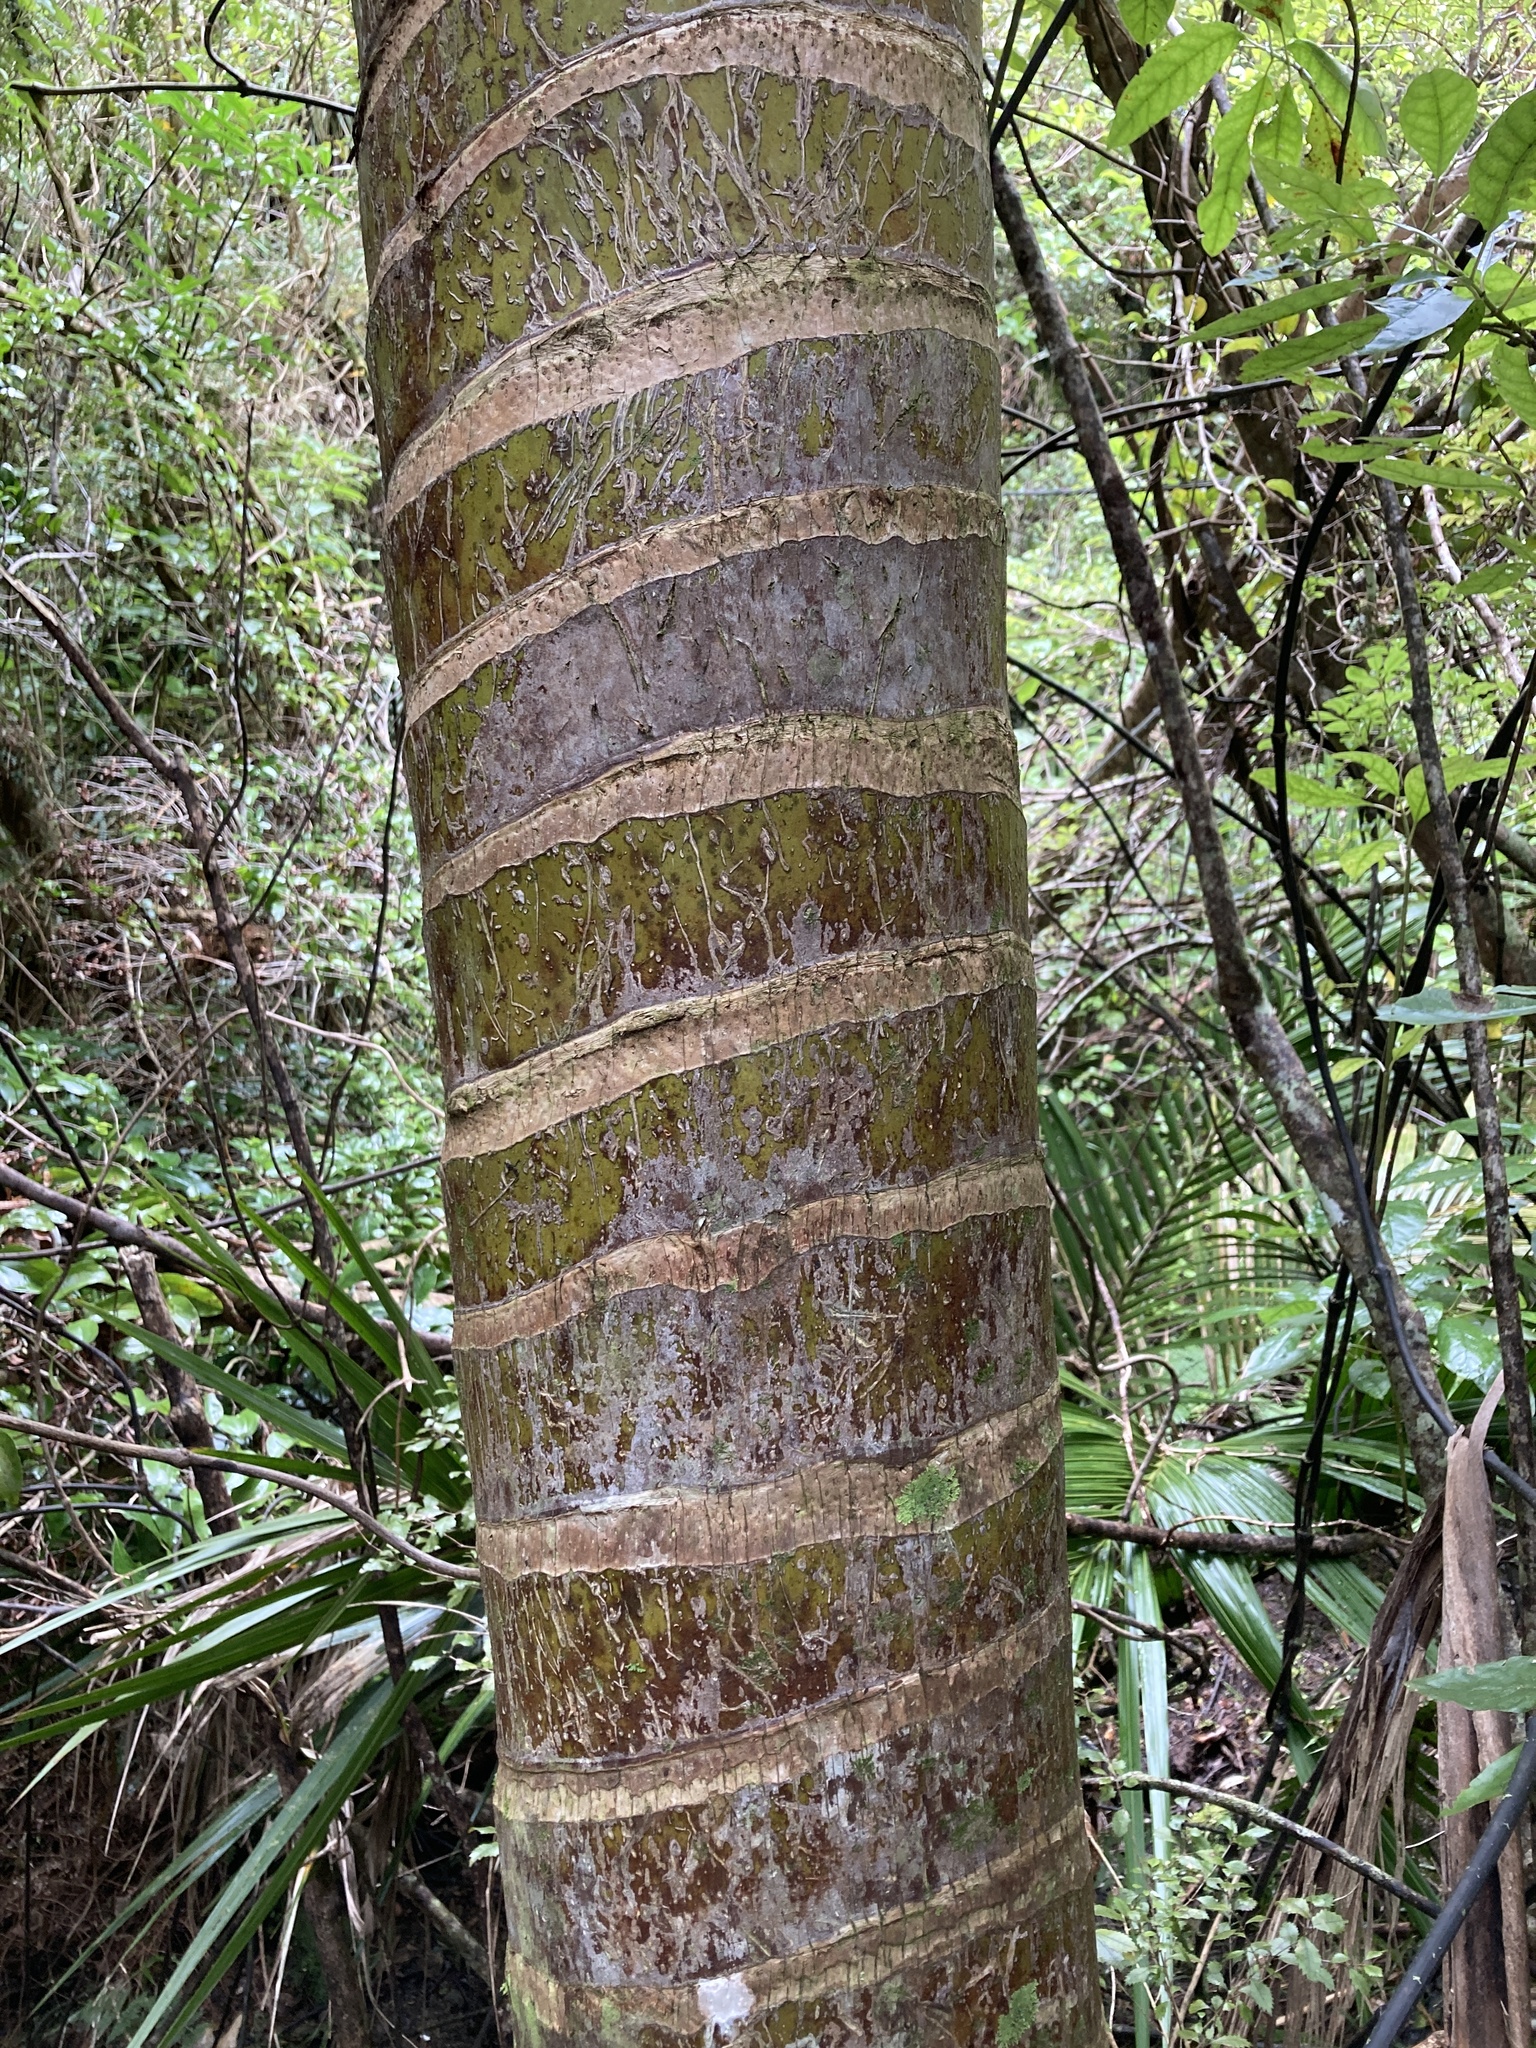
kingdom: Plantae
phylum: Tracheophyta
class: Liliopsida
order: Arecales
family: Arecaceae
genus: Rhopalostylis
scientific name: Rhopalostylis sapida
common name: Feather-duster palm
